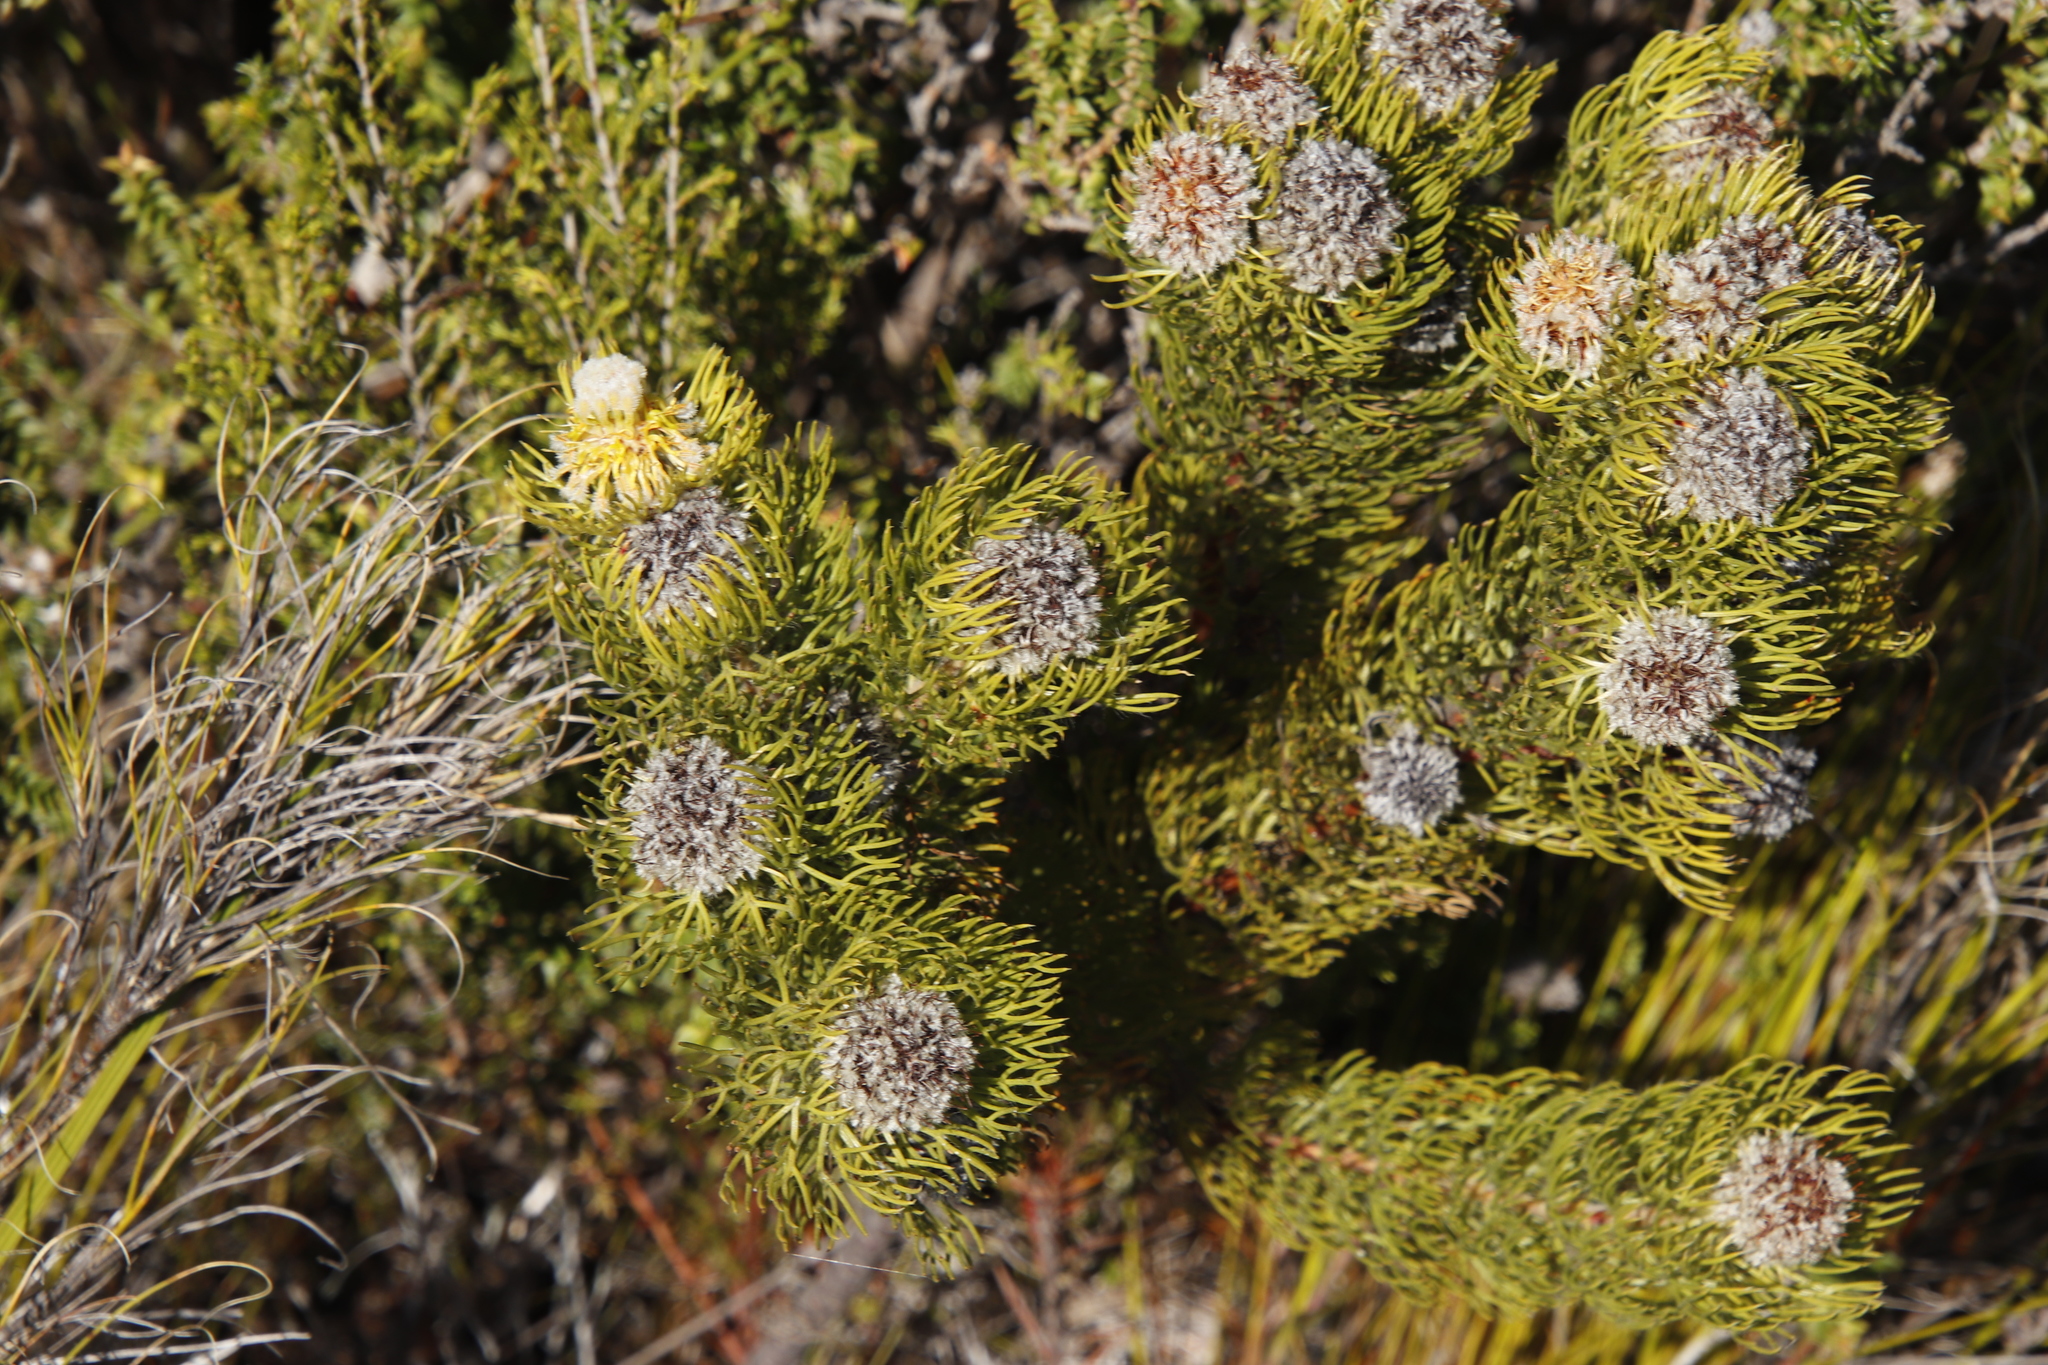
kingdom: Plantae
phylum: Tracheophyta
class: Magnoliopsida
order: Proteales
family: Proteaceae
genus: Serruria
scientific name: Serruria villosa
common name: Golden spiderhead
